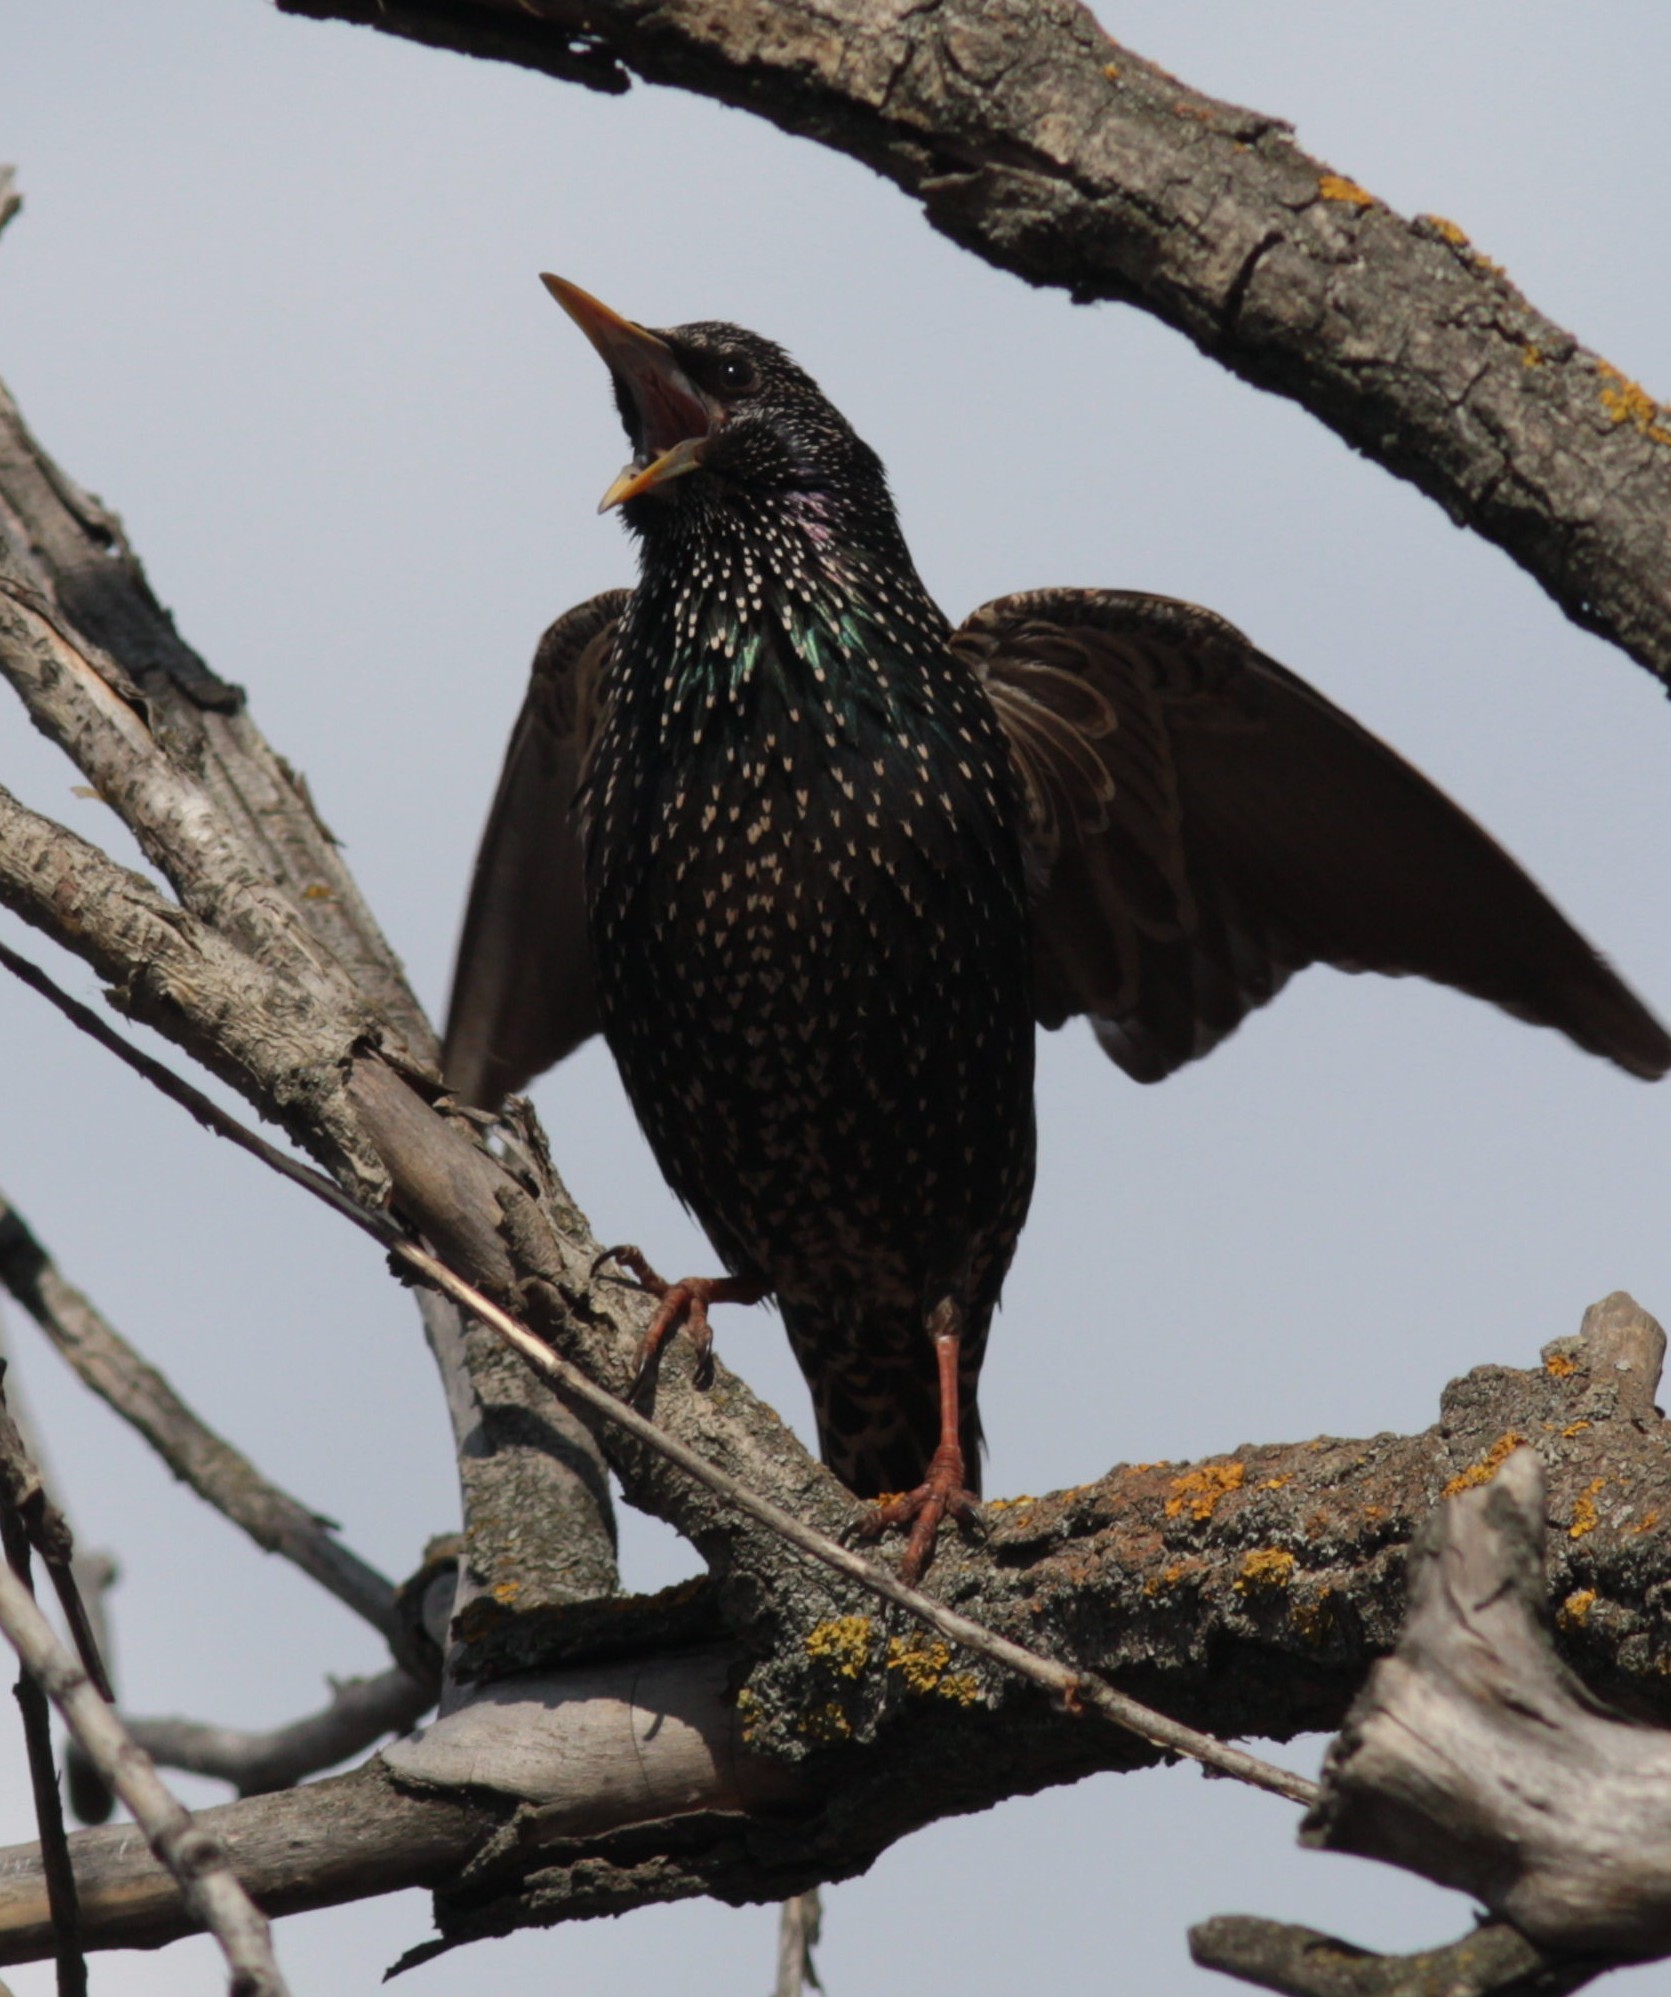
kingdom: Animalia
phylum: Chordata
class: Aves
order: Passeriformes
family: Sturnidae
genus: Sturnus
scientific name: Sturnus vulgaris
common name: Common starling
